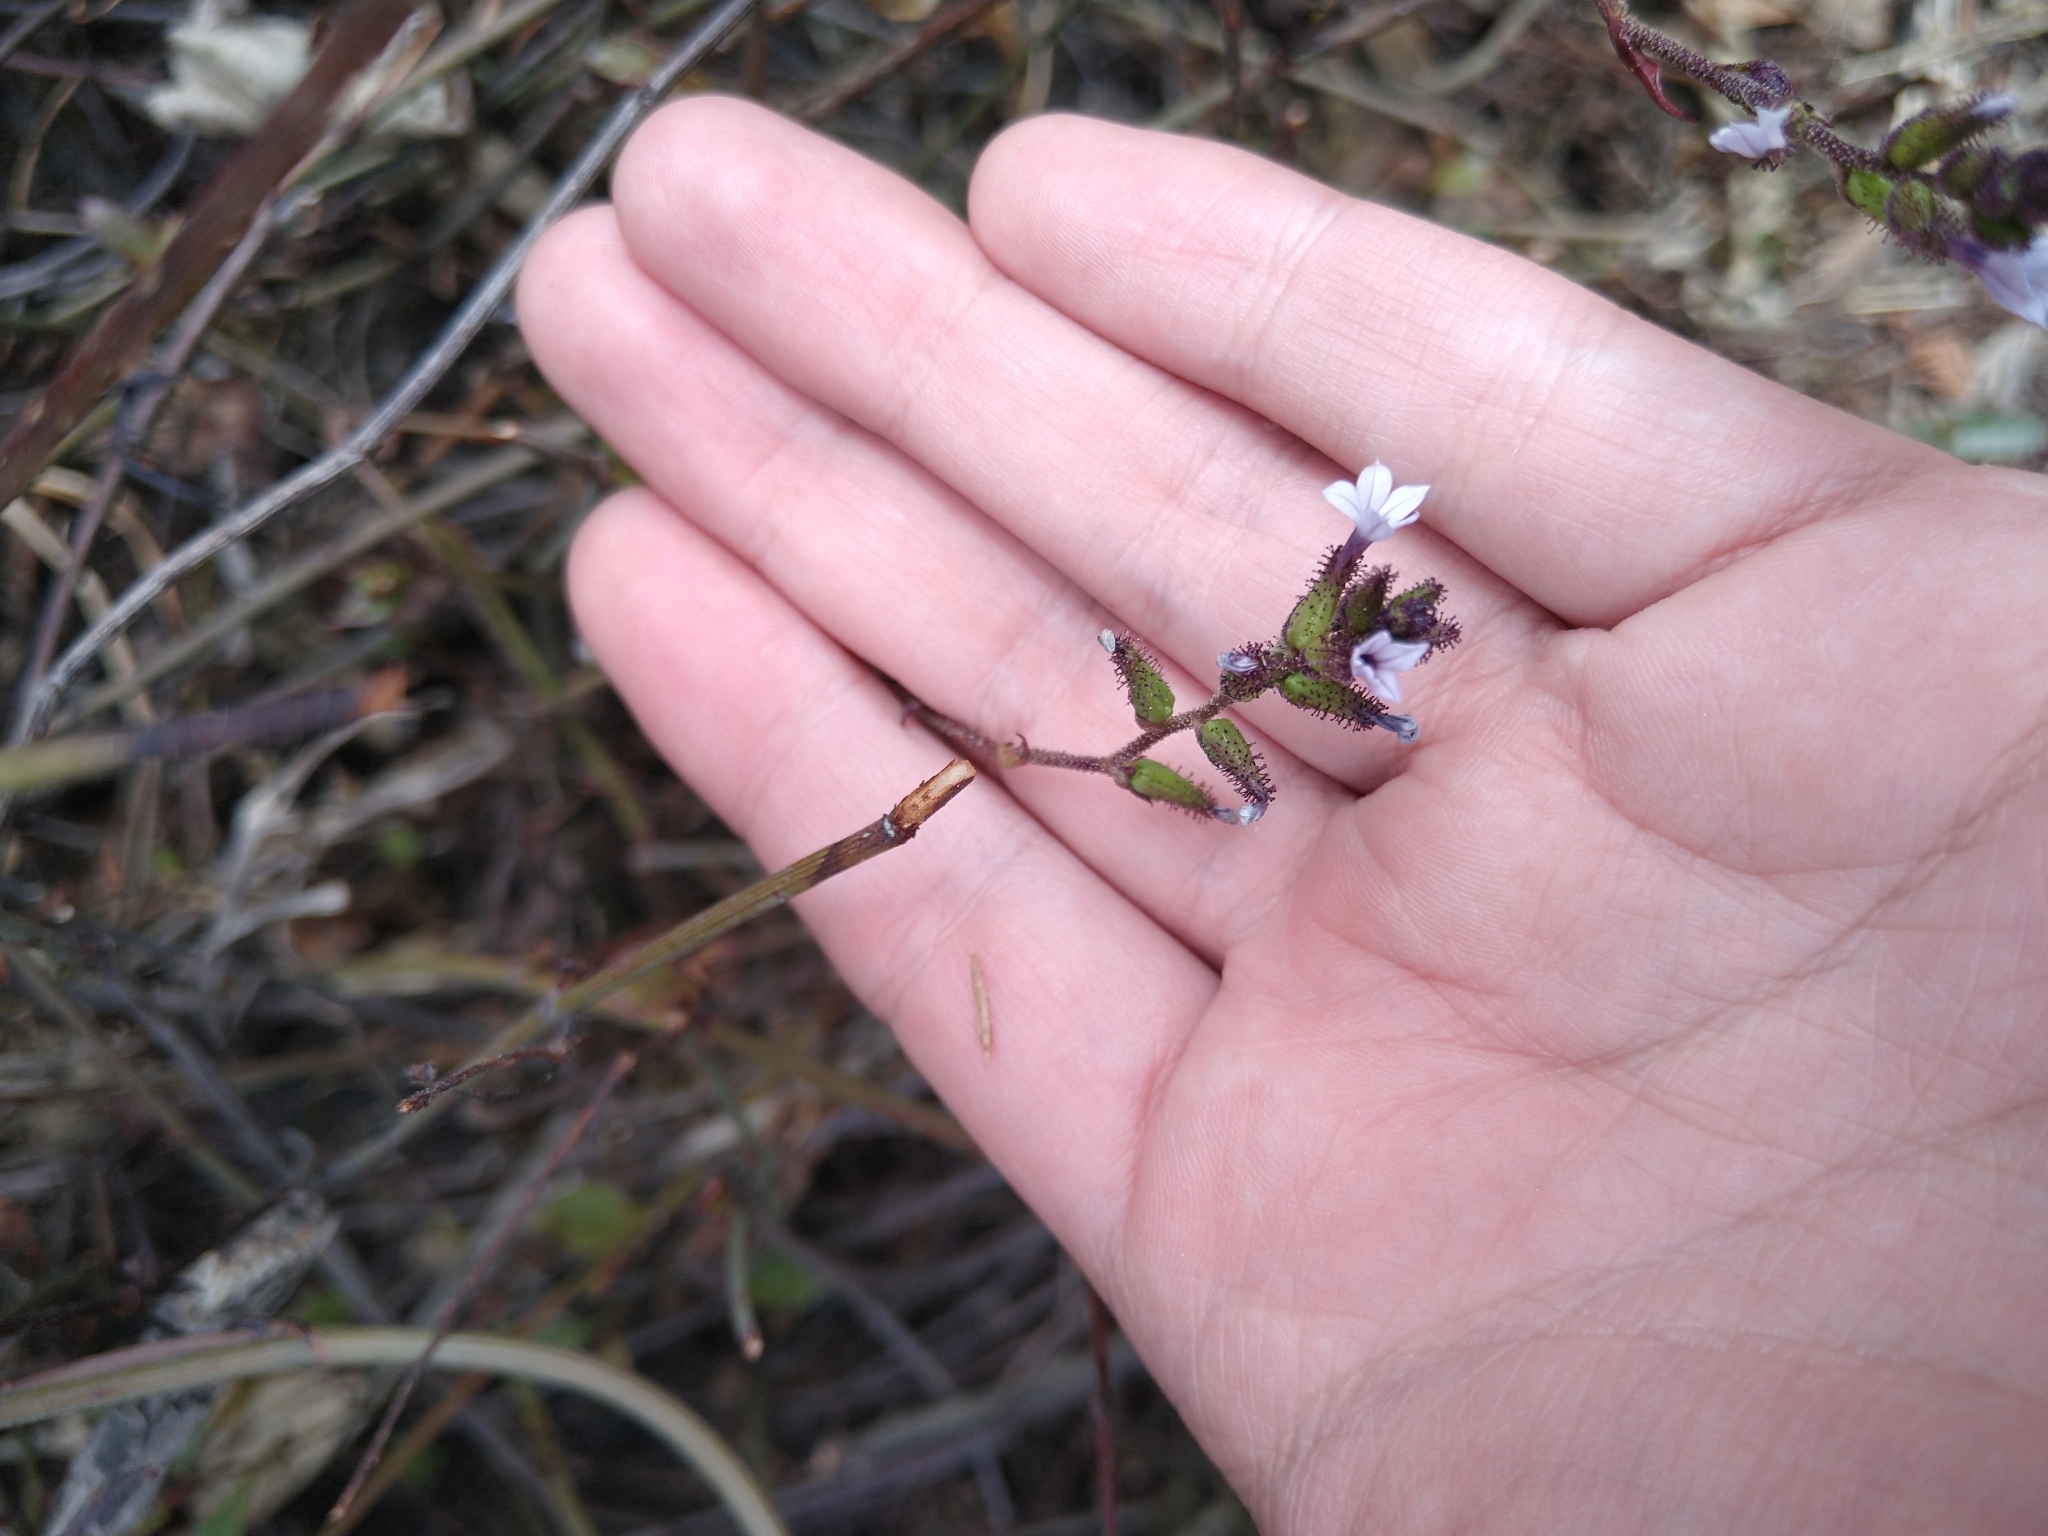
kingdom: Plantae
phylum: Tracheophyta
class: Magnoliopsida
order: Caryophyllales
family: Plumbaginaceae
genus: Plumbago
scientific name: Plumbago pulchella
